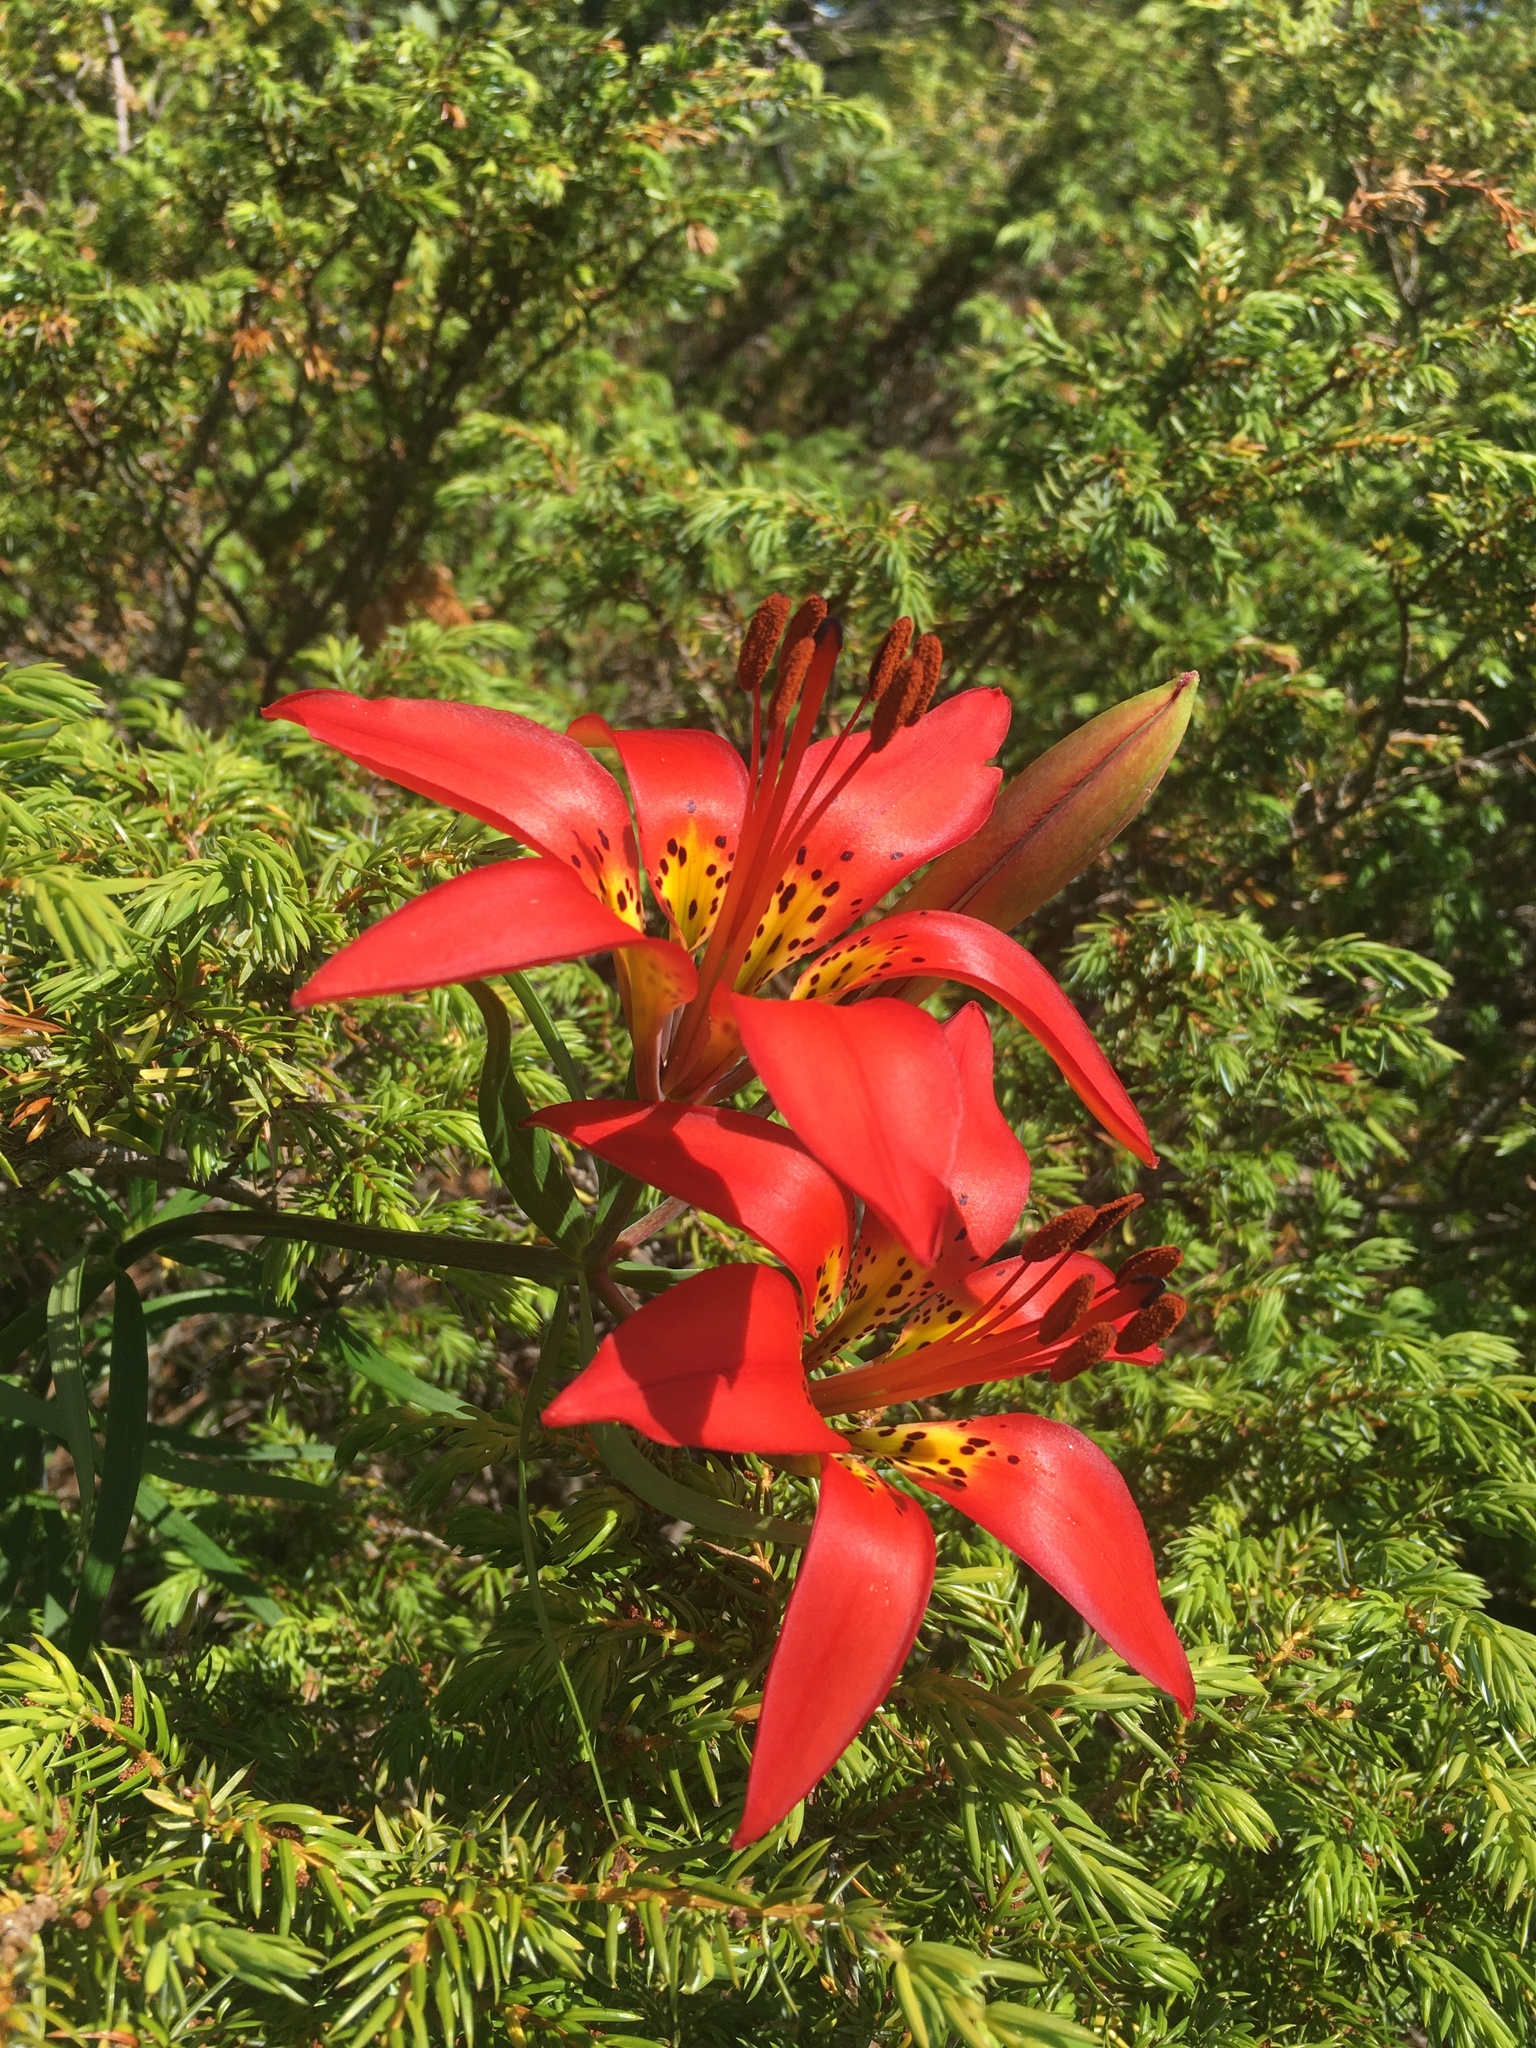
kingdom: Plantae
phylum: Tracheophyta
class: Liliopsida
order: Liliales
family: Liliaceae
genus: Lilium
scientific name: Lilium philadelphicum
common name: Red lily
